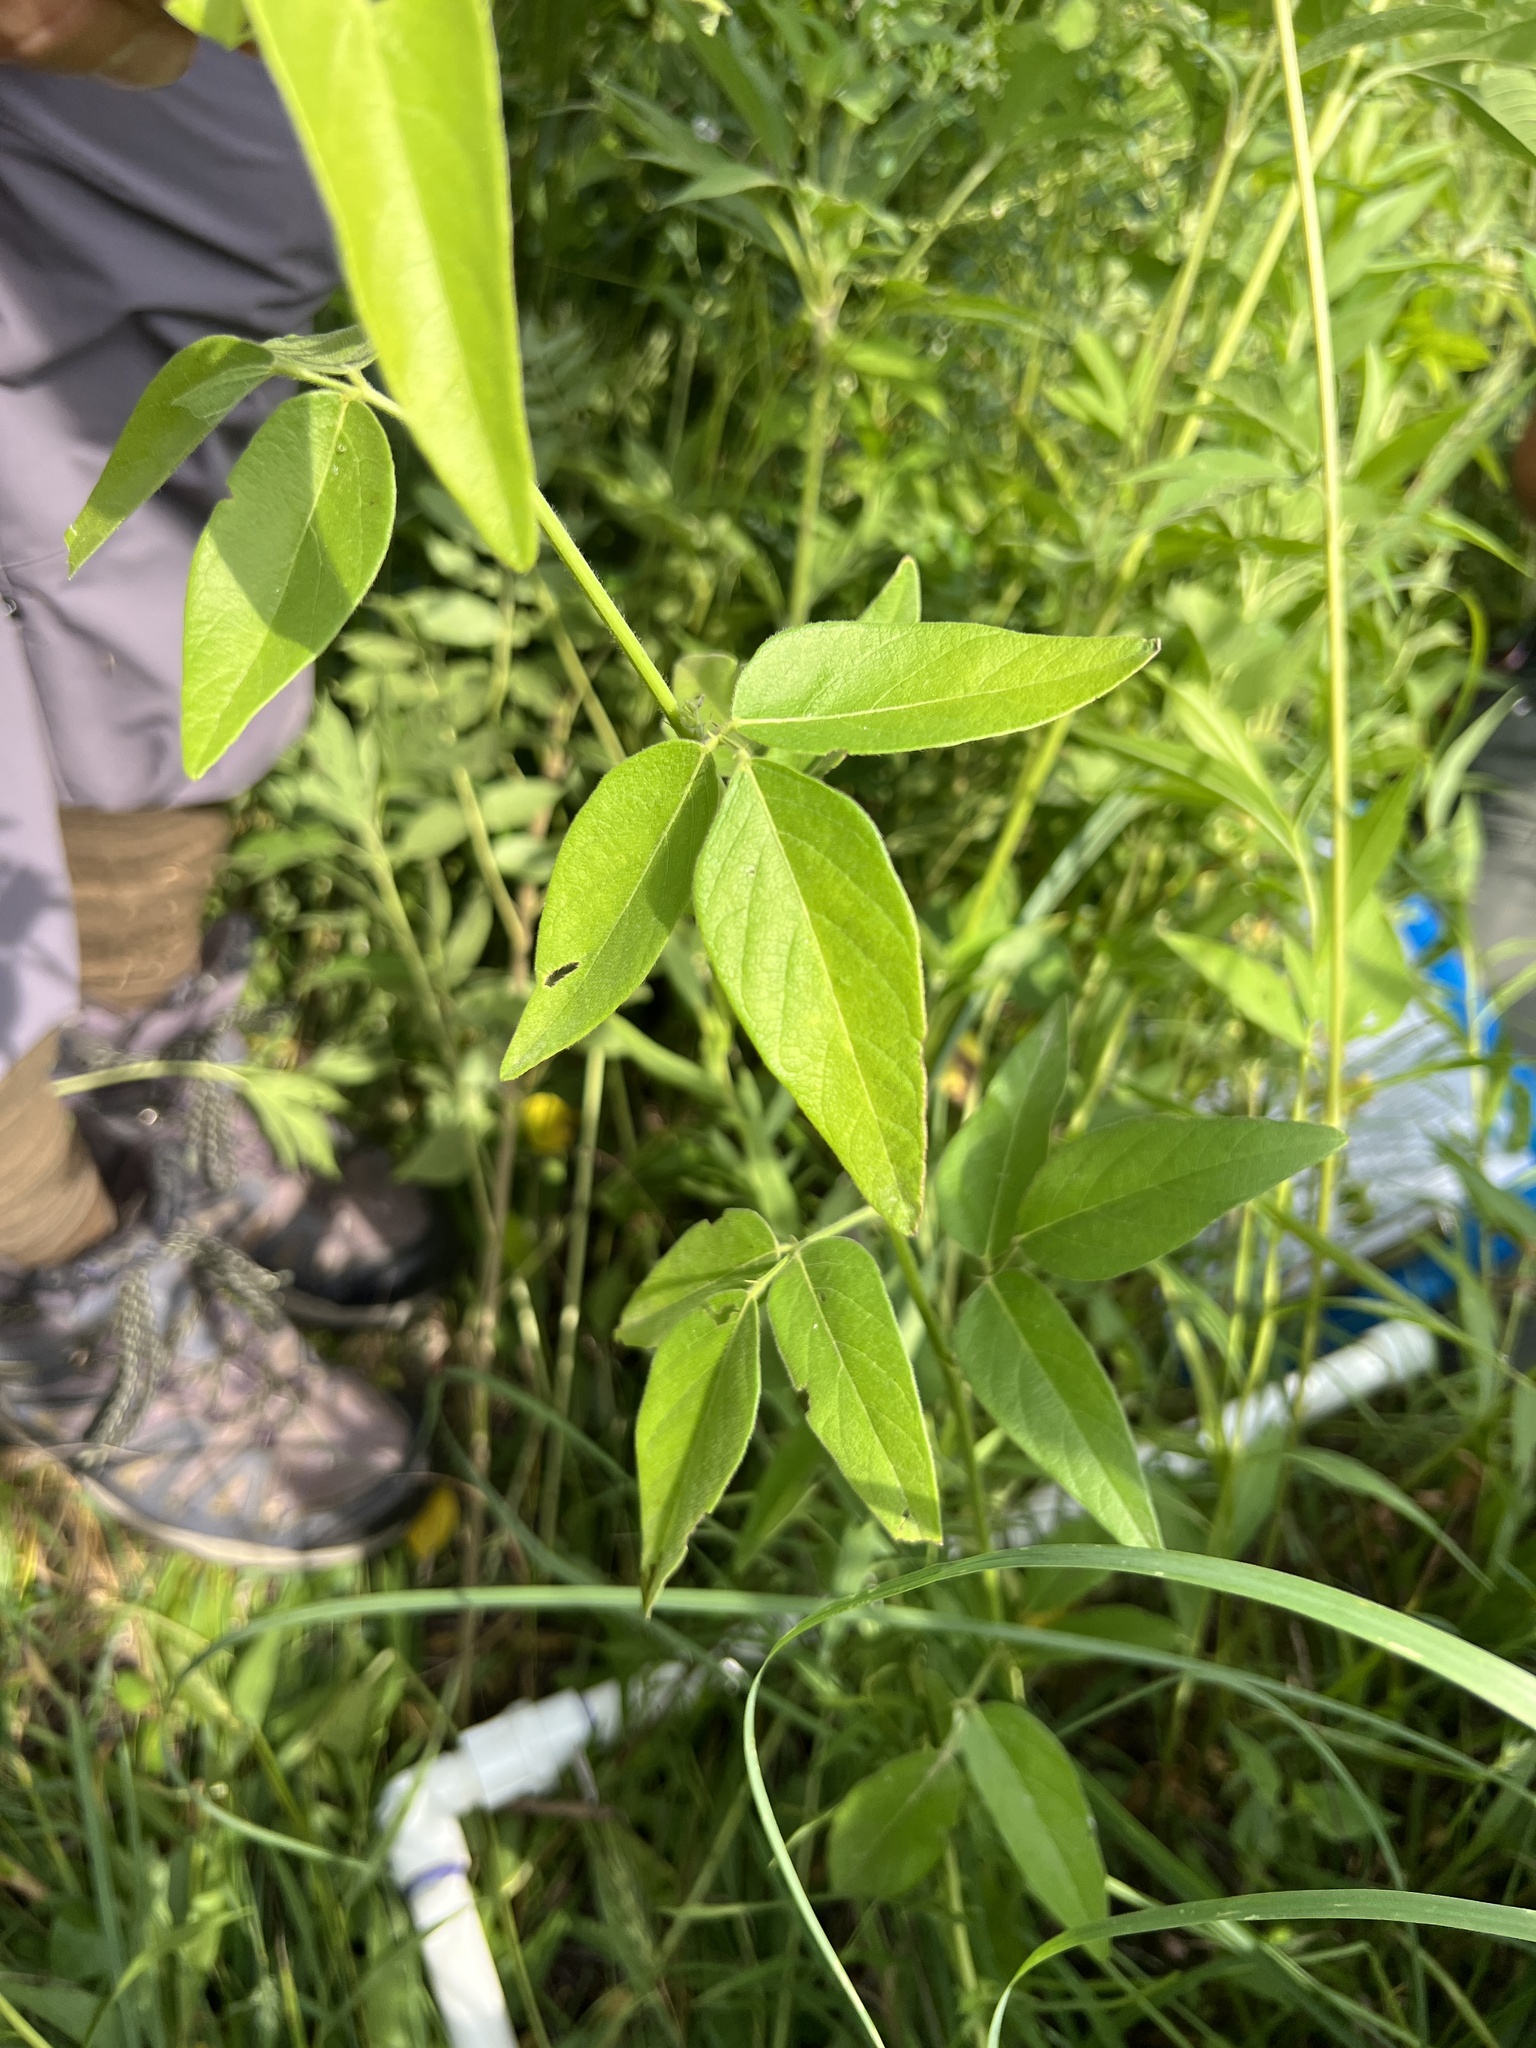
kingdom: Plantae
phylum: Tracheophyta
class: Magnoliopsida
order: Fabales
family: Fabaceae
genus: Desmodium
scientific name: Desmodium glabellum
